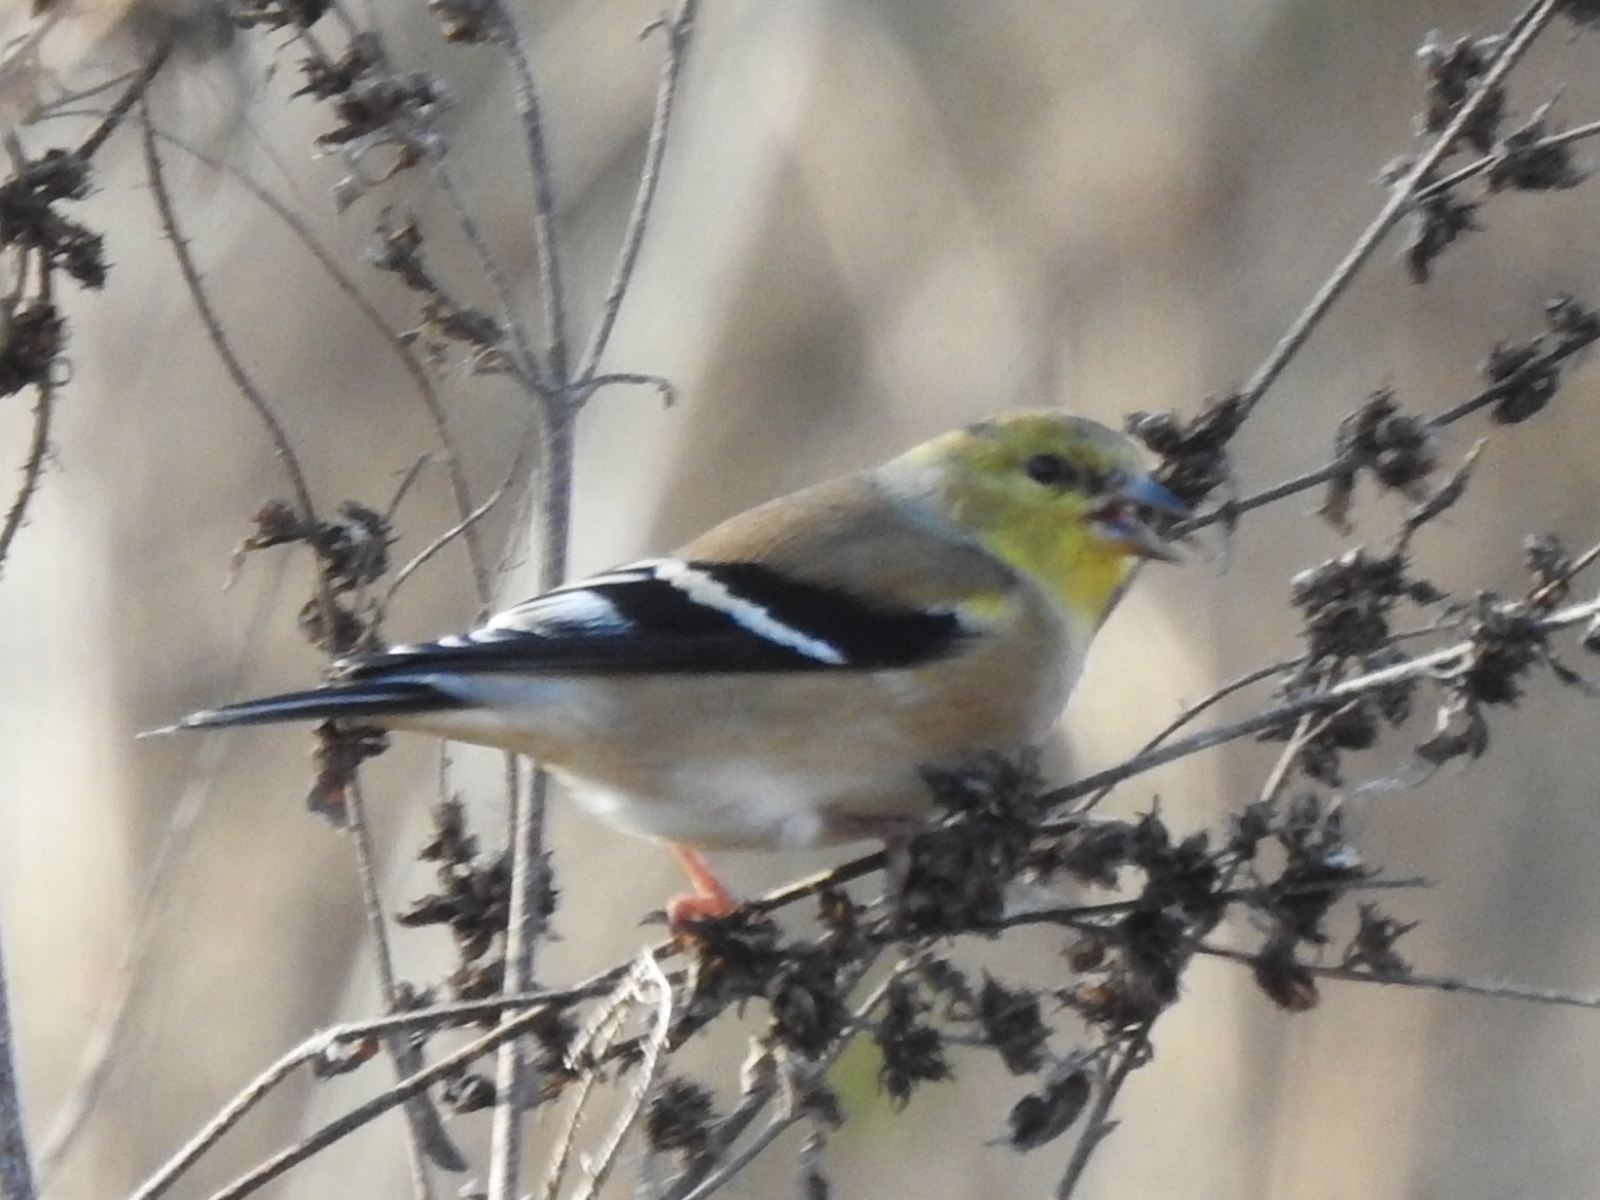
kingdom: Animalia
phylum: Chordata
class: Aves
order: Passeriformes
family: Fringillidae
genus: Spinus
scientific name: Spinus tristis
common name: American goldfinch
